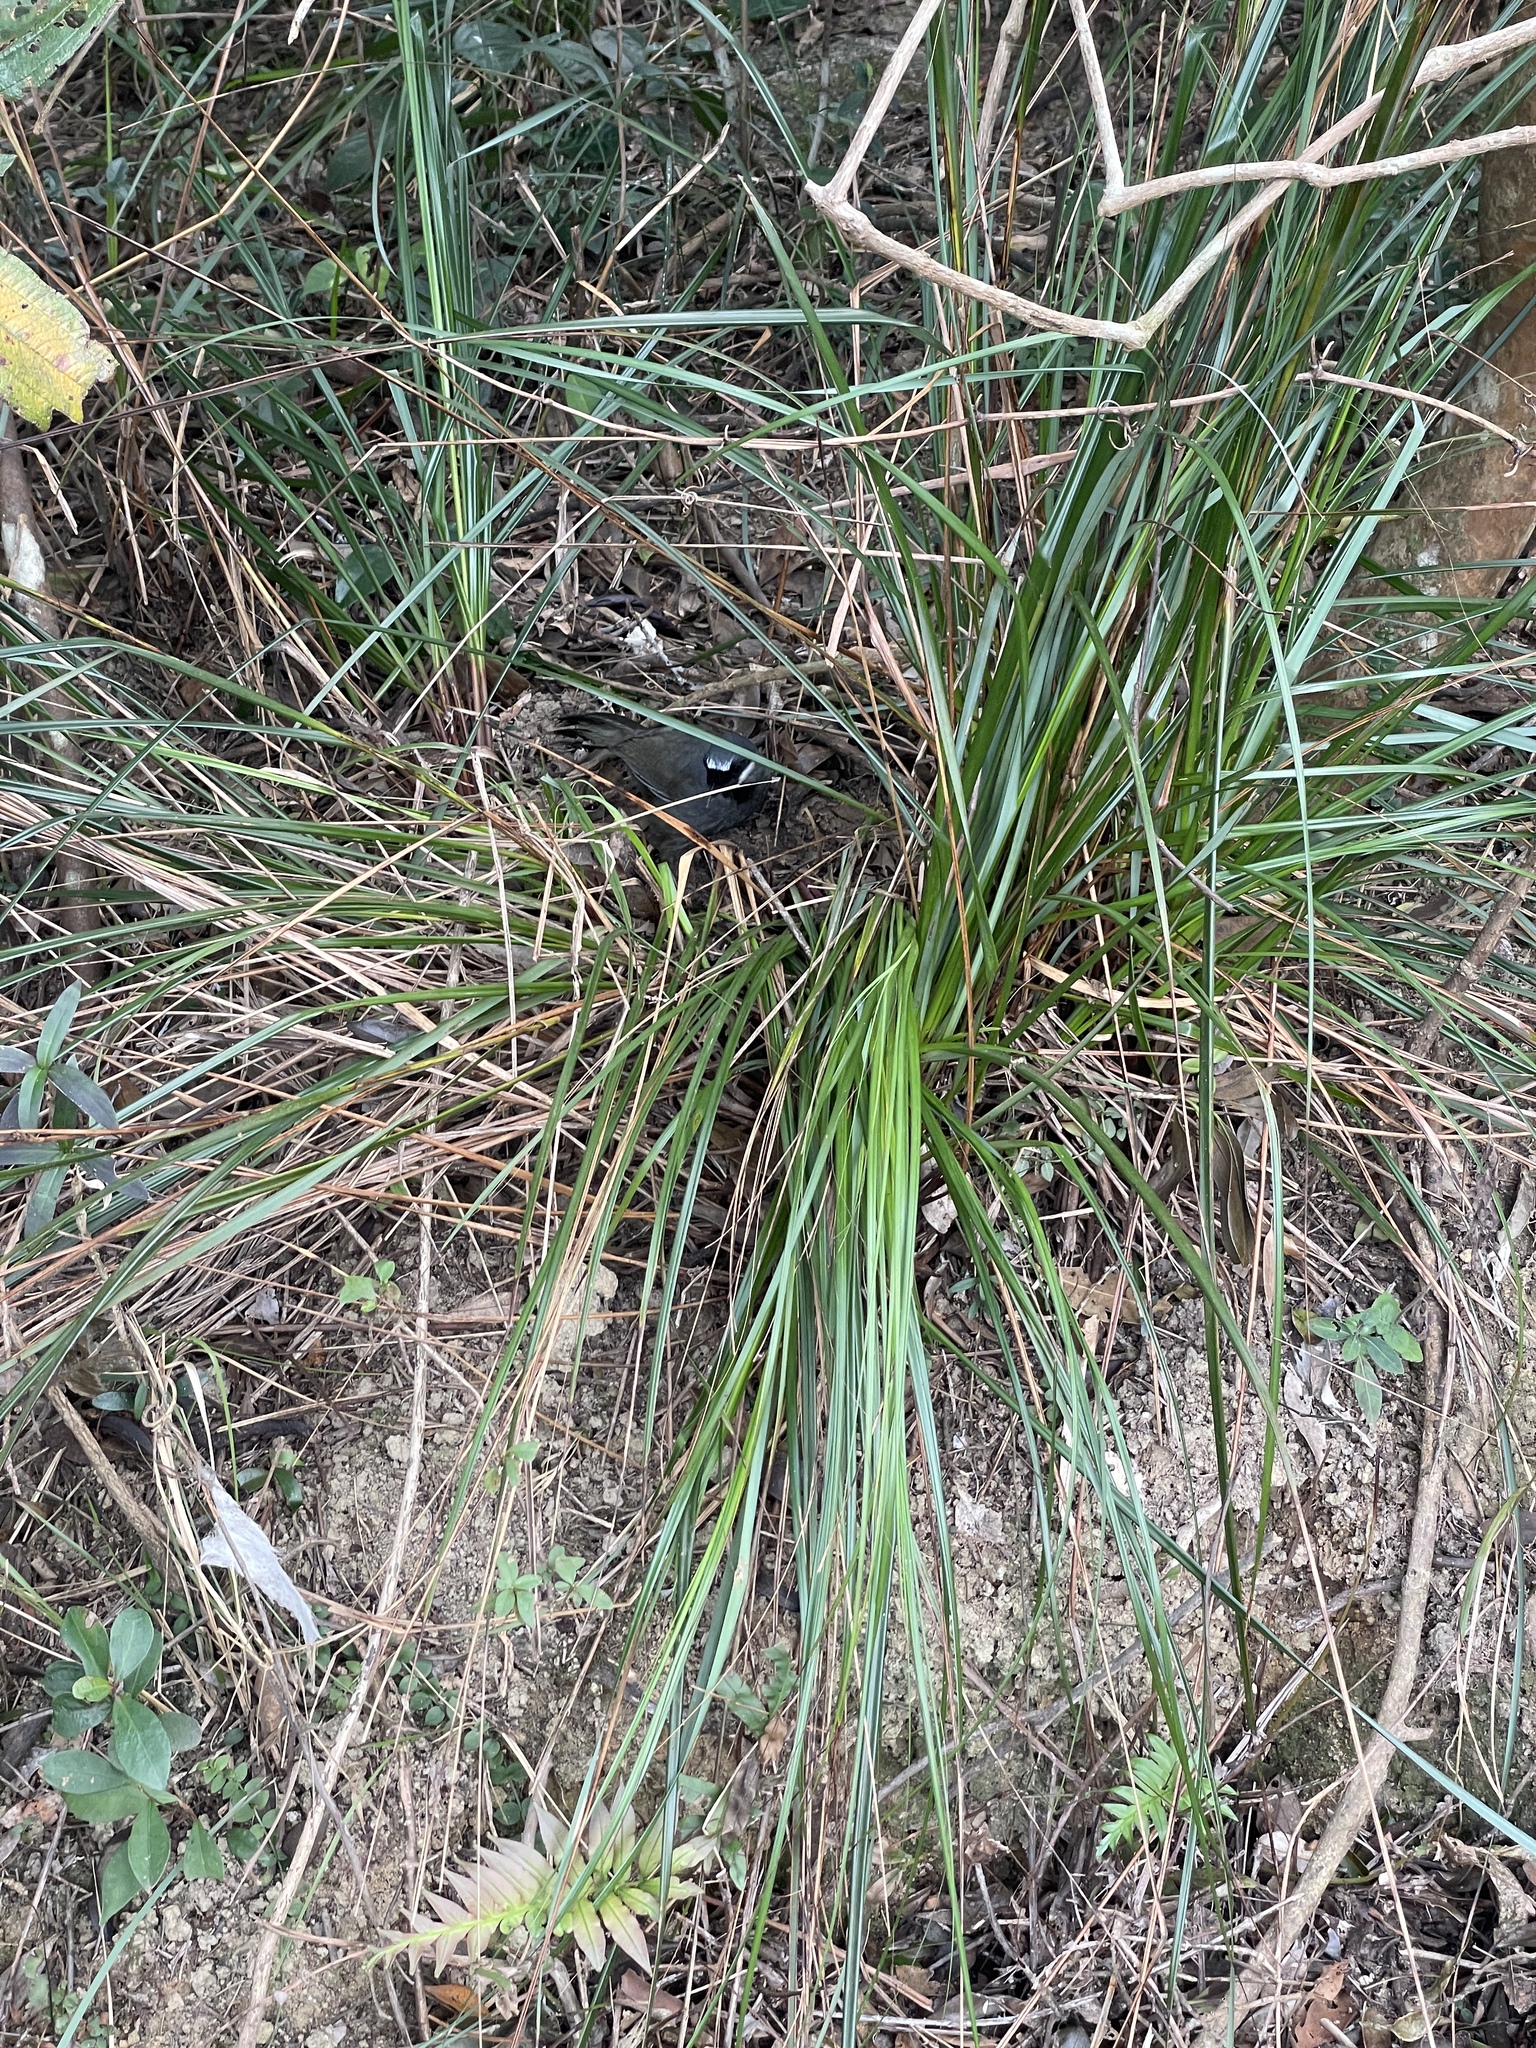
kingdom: Animalia
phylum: Chordata
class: Aves
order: Passeriformes
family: Leiothrichidae
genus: Garrulax
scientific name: Garrulax chinensis
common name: Black-throated laughingthrush
